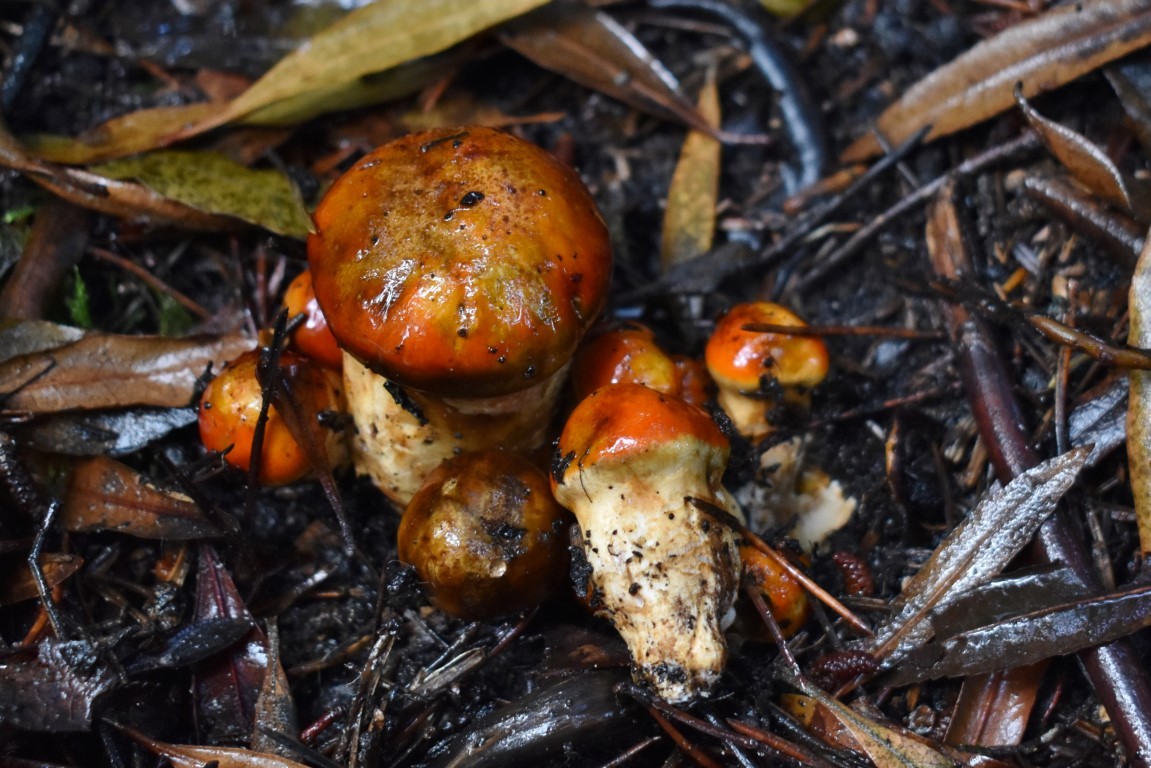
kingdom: Fungi
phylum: Basidiomycota
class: Agaricomycetes
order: Boletales
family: Suillaceae
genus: Suillus
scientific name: Suillus ponderosus
